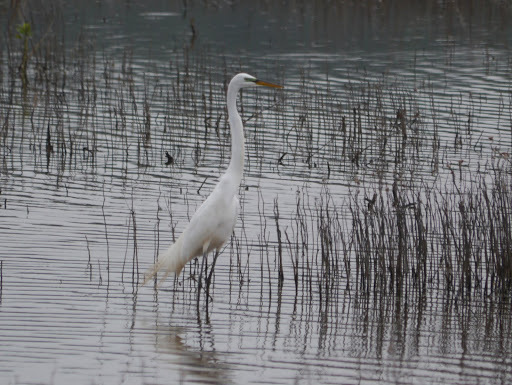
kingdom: Animalia
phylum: Chordata
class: Aves
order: Pelecaniformes
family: Ardeidae
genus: Ardea
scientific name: Ardea alba
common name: Great egret
